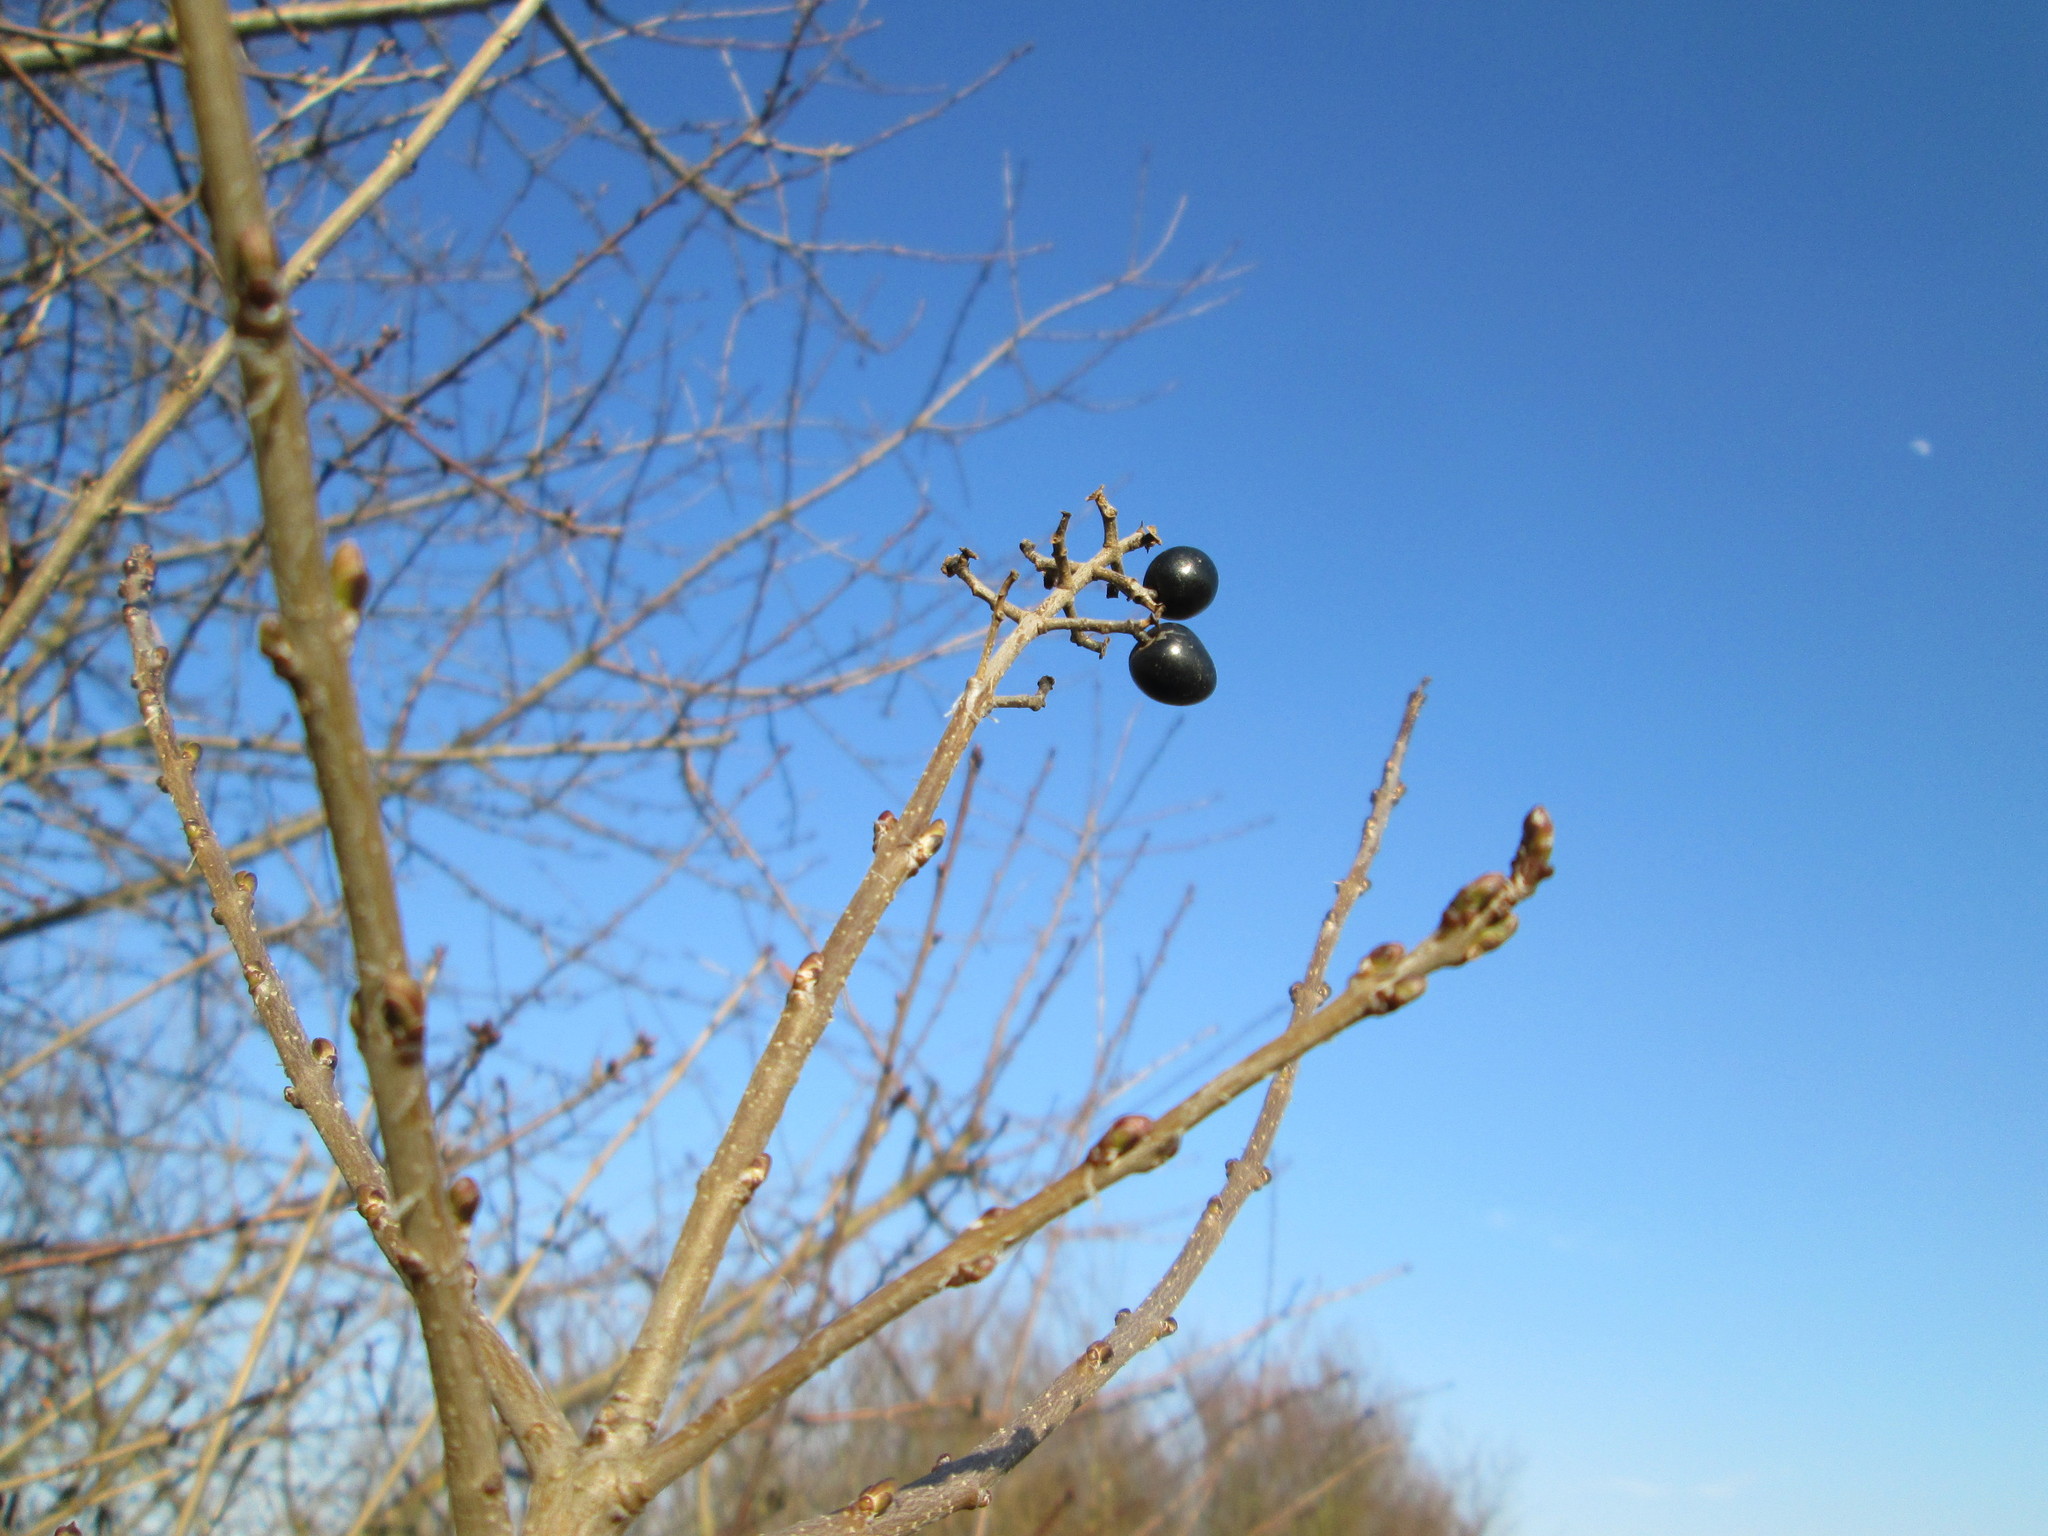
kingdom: Plantae
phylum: Tracheophyta
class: Magnoliopsida
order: Lamiales
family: Oleaceae
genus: Ligustrum
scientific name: Ligustrum vulgare
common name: Wild privet
